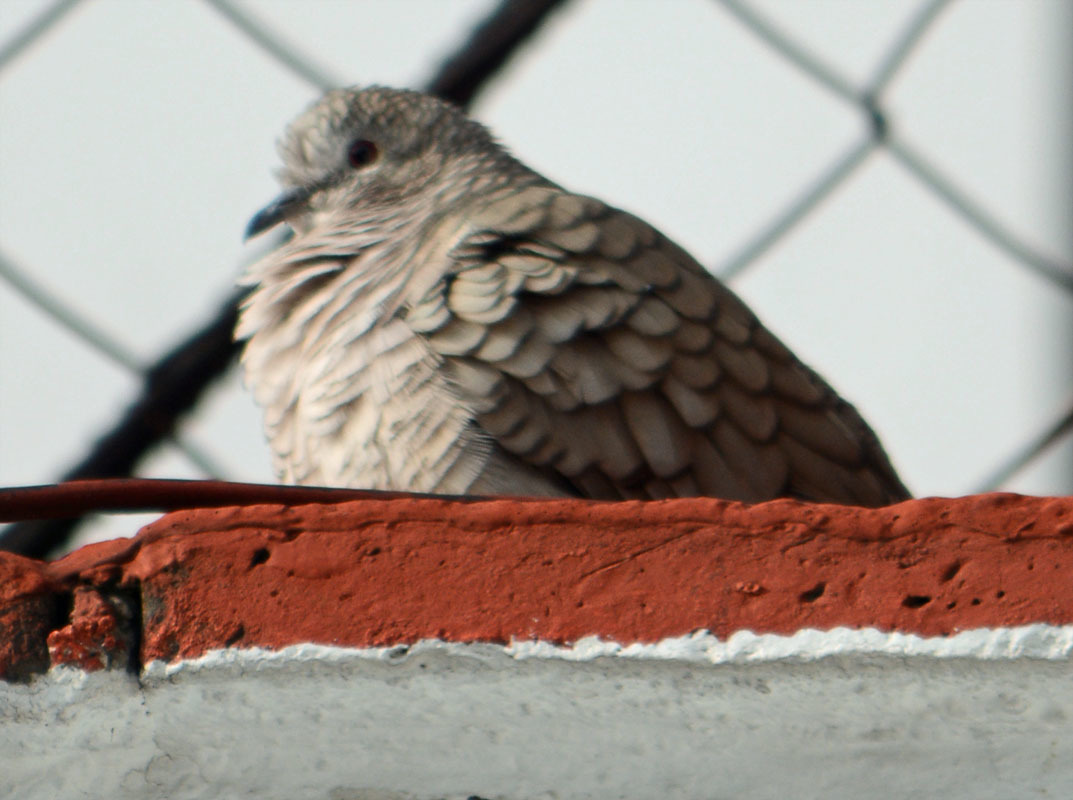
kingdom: Animalia
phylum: Chordata
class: Aves
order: Columbiformes
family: Columbidae
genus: Columbina
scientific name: Columbina inca
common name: Inca dove
